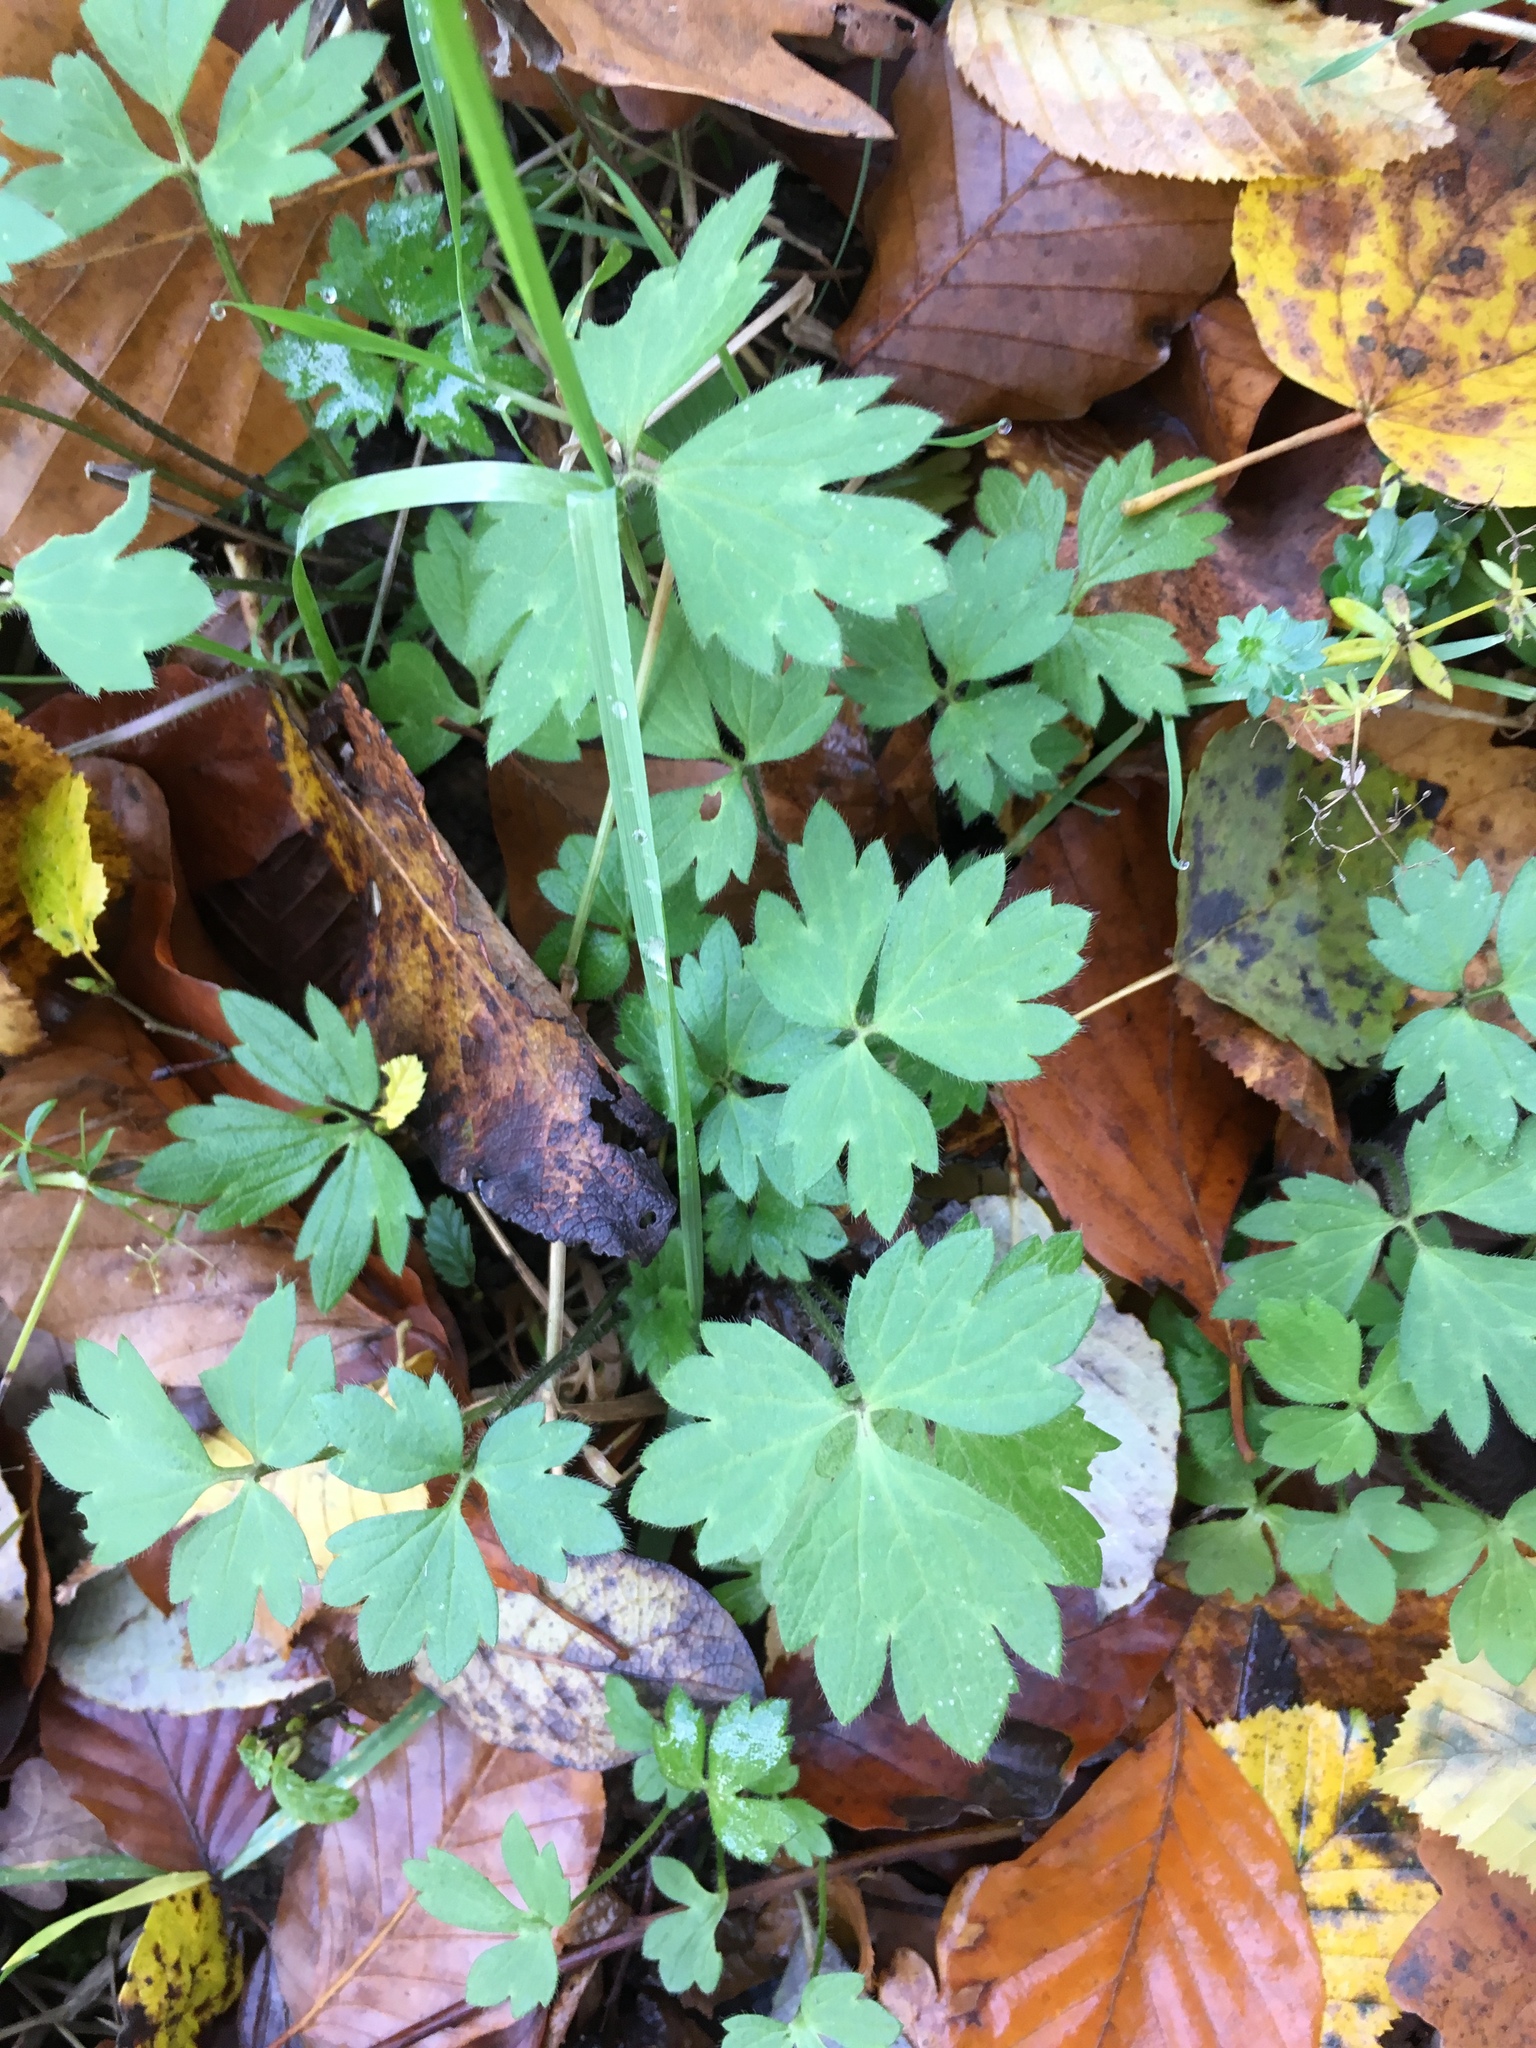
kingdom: Plantae
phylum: Tracheophyta
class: Magnoliopsida
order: Ranunculales
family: Ranunculaceae
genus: Ranunculus
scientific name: Ranunculus repens
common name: Creeping buttercup
